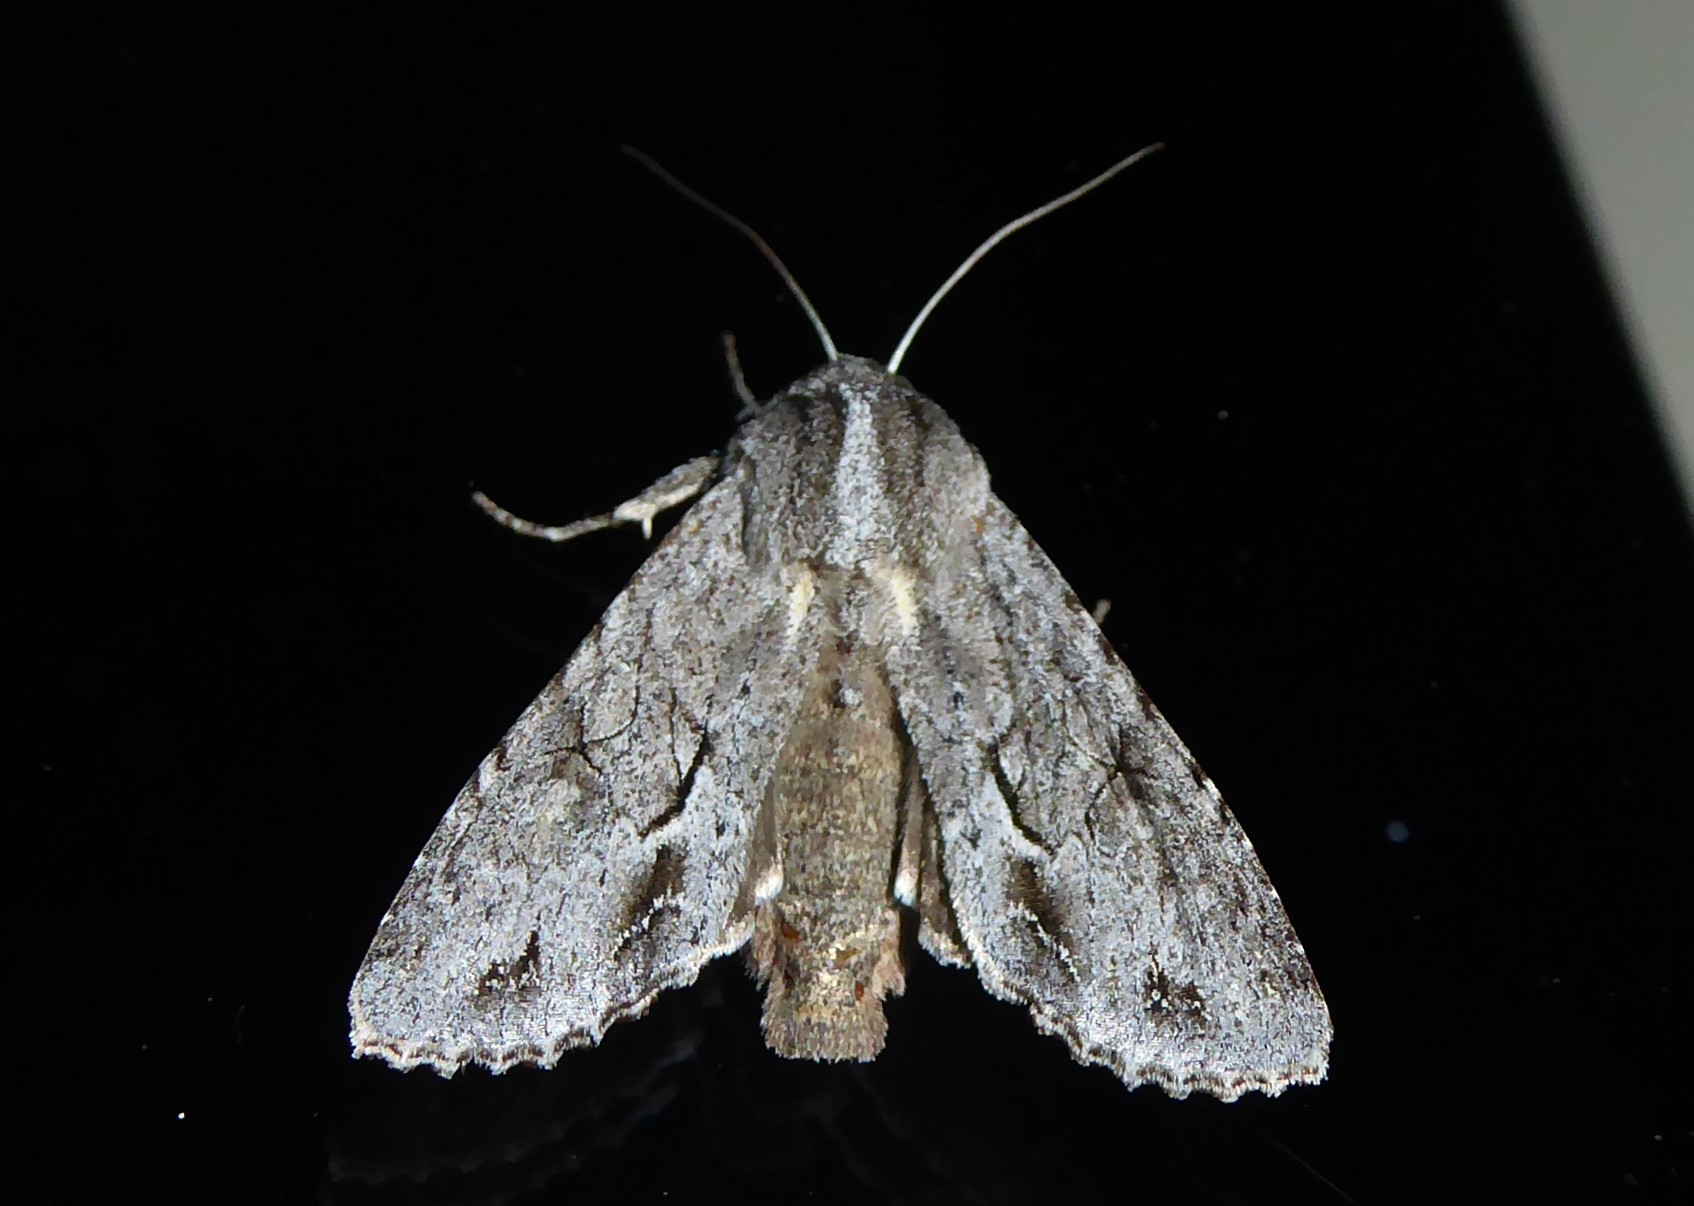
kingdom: Animalia
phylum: Arthropoda
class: Insecta
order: Lepidoptera
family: Noctuidae
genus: Ichneutica
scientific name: Ichneutica
